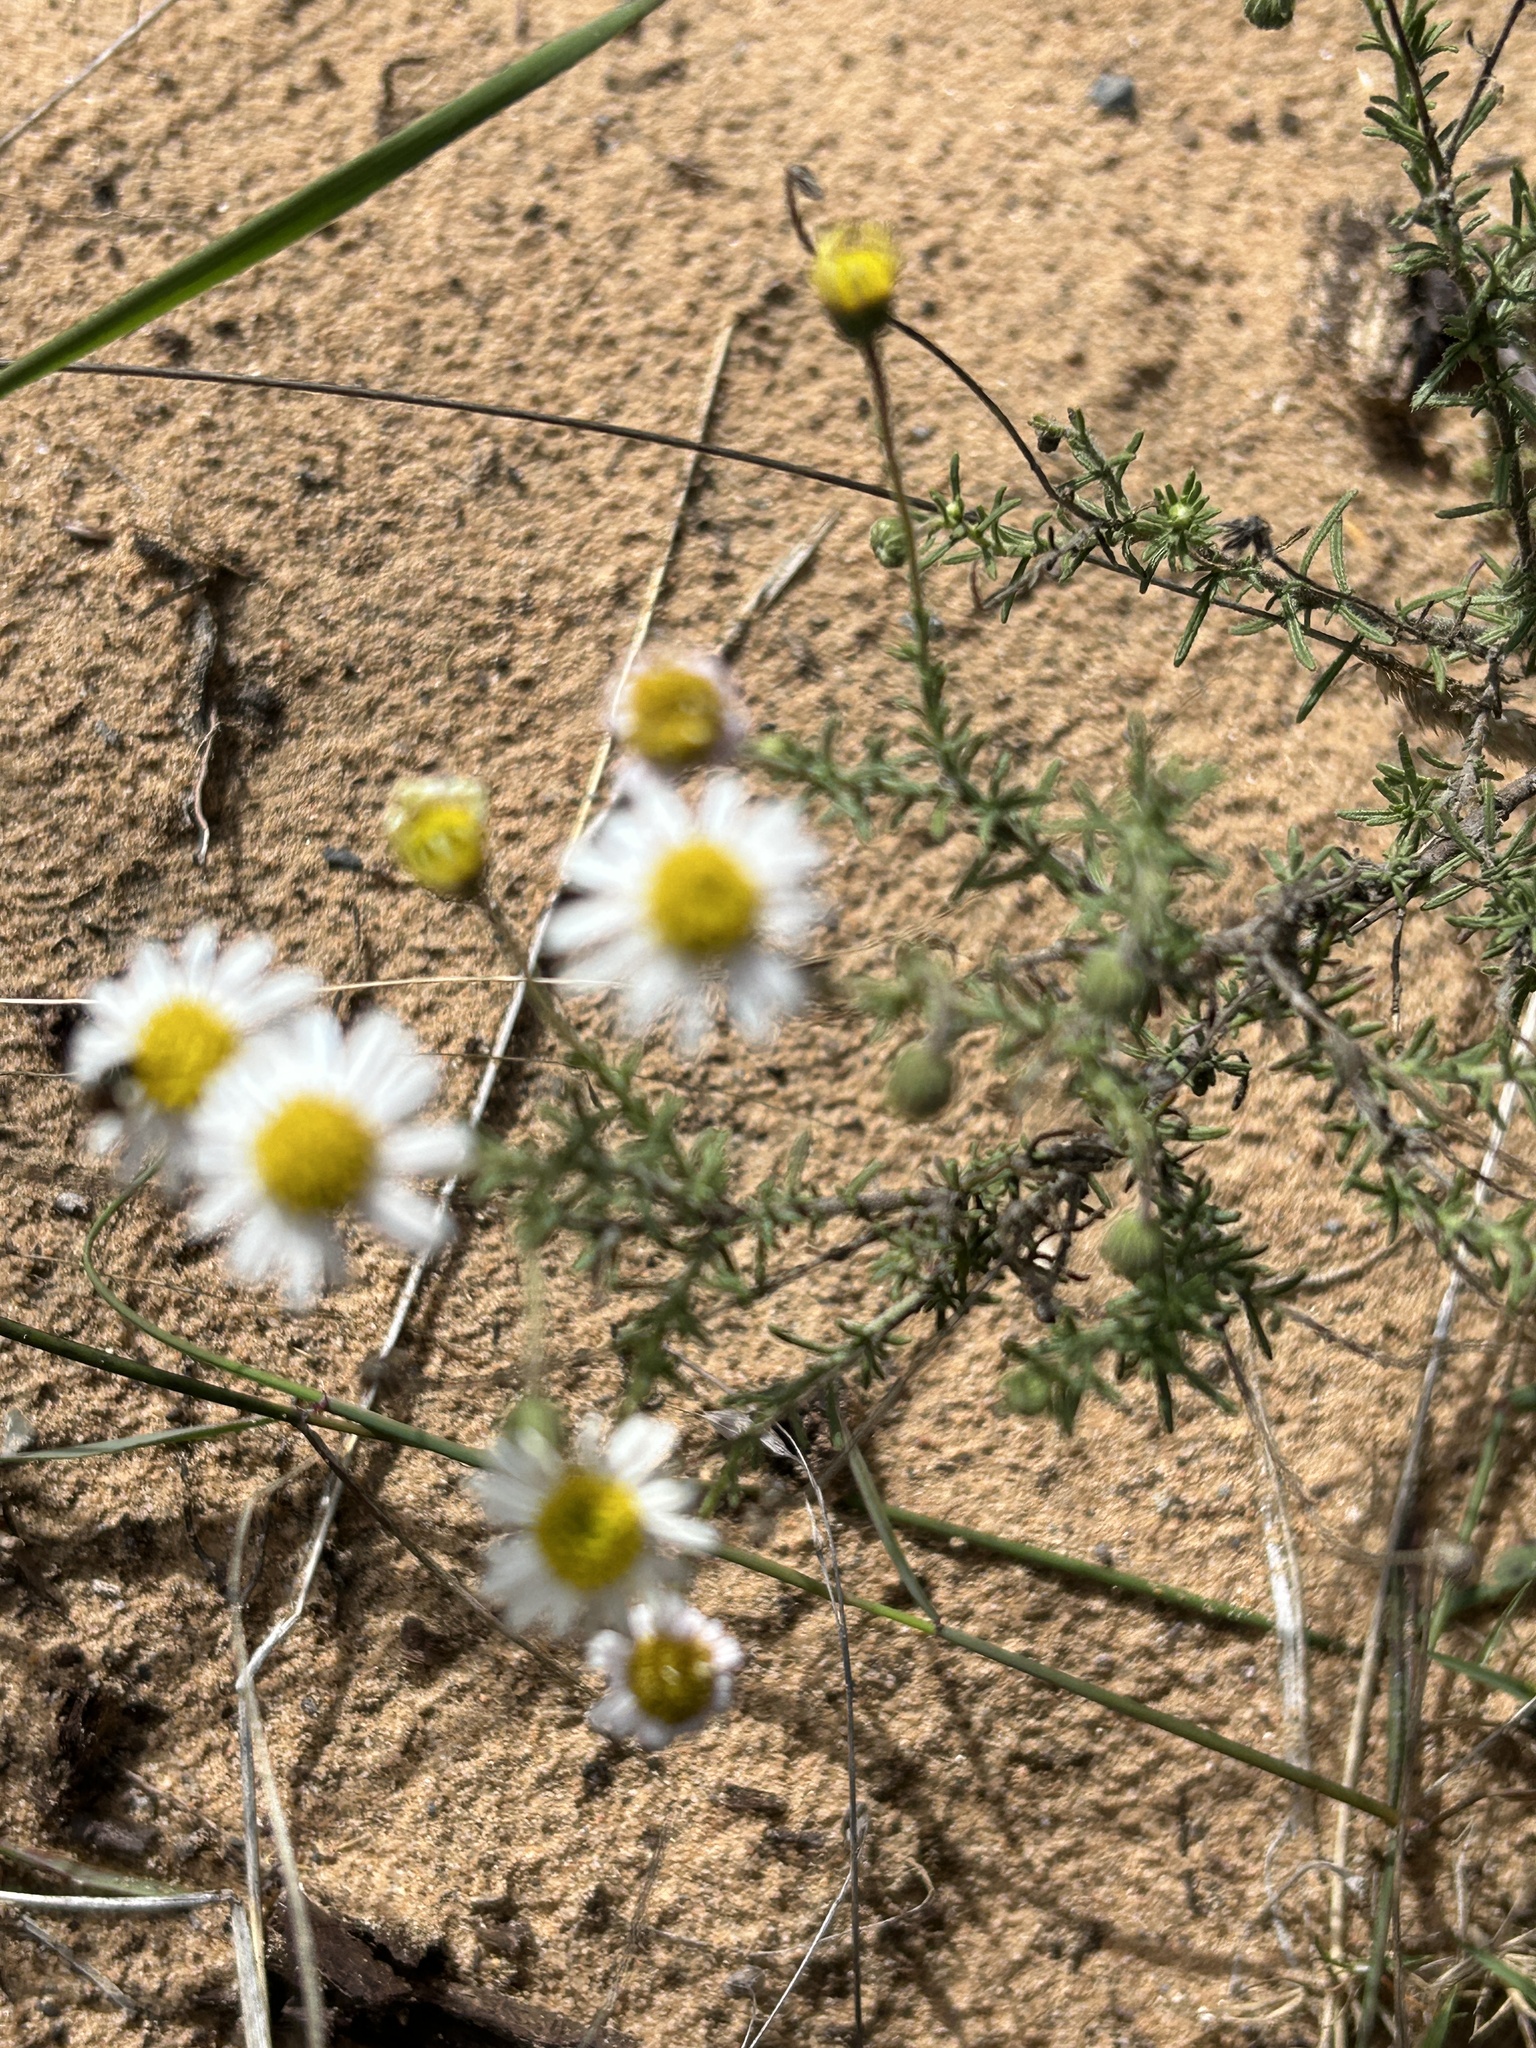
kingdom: Plantae
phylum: Tracheophyta
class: Magnoliopsida
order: Asterales
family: Asteraceae
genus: Felicia
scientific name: Felicia muricata
